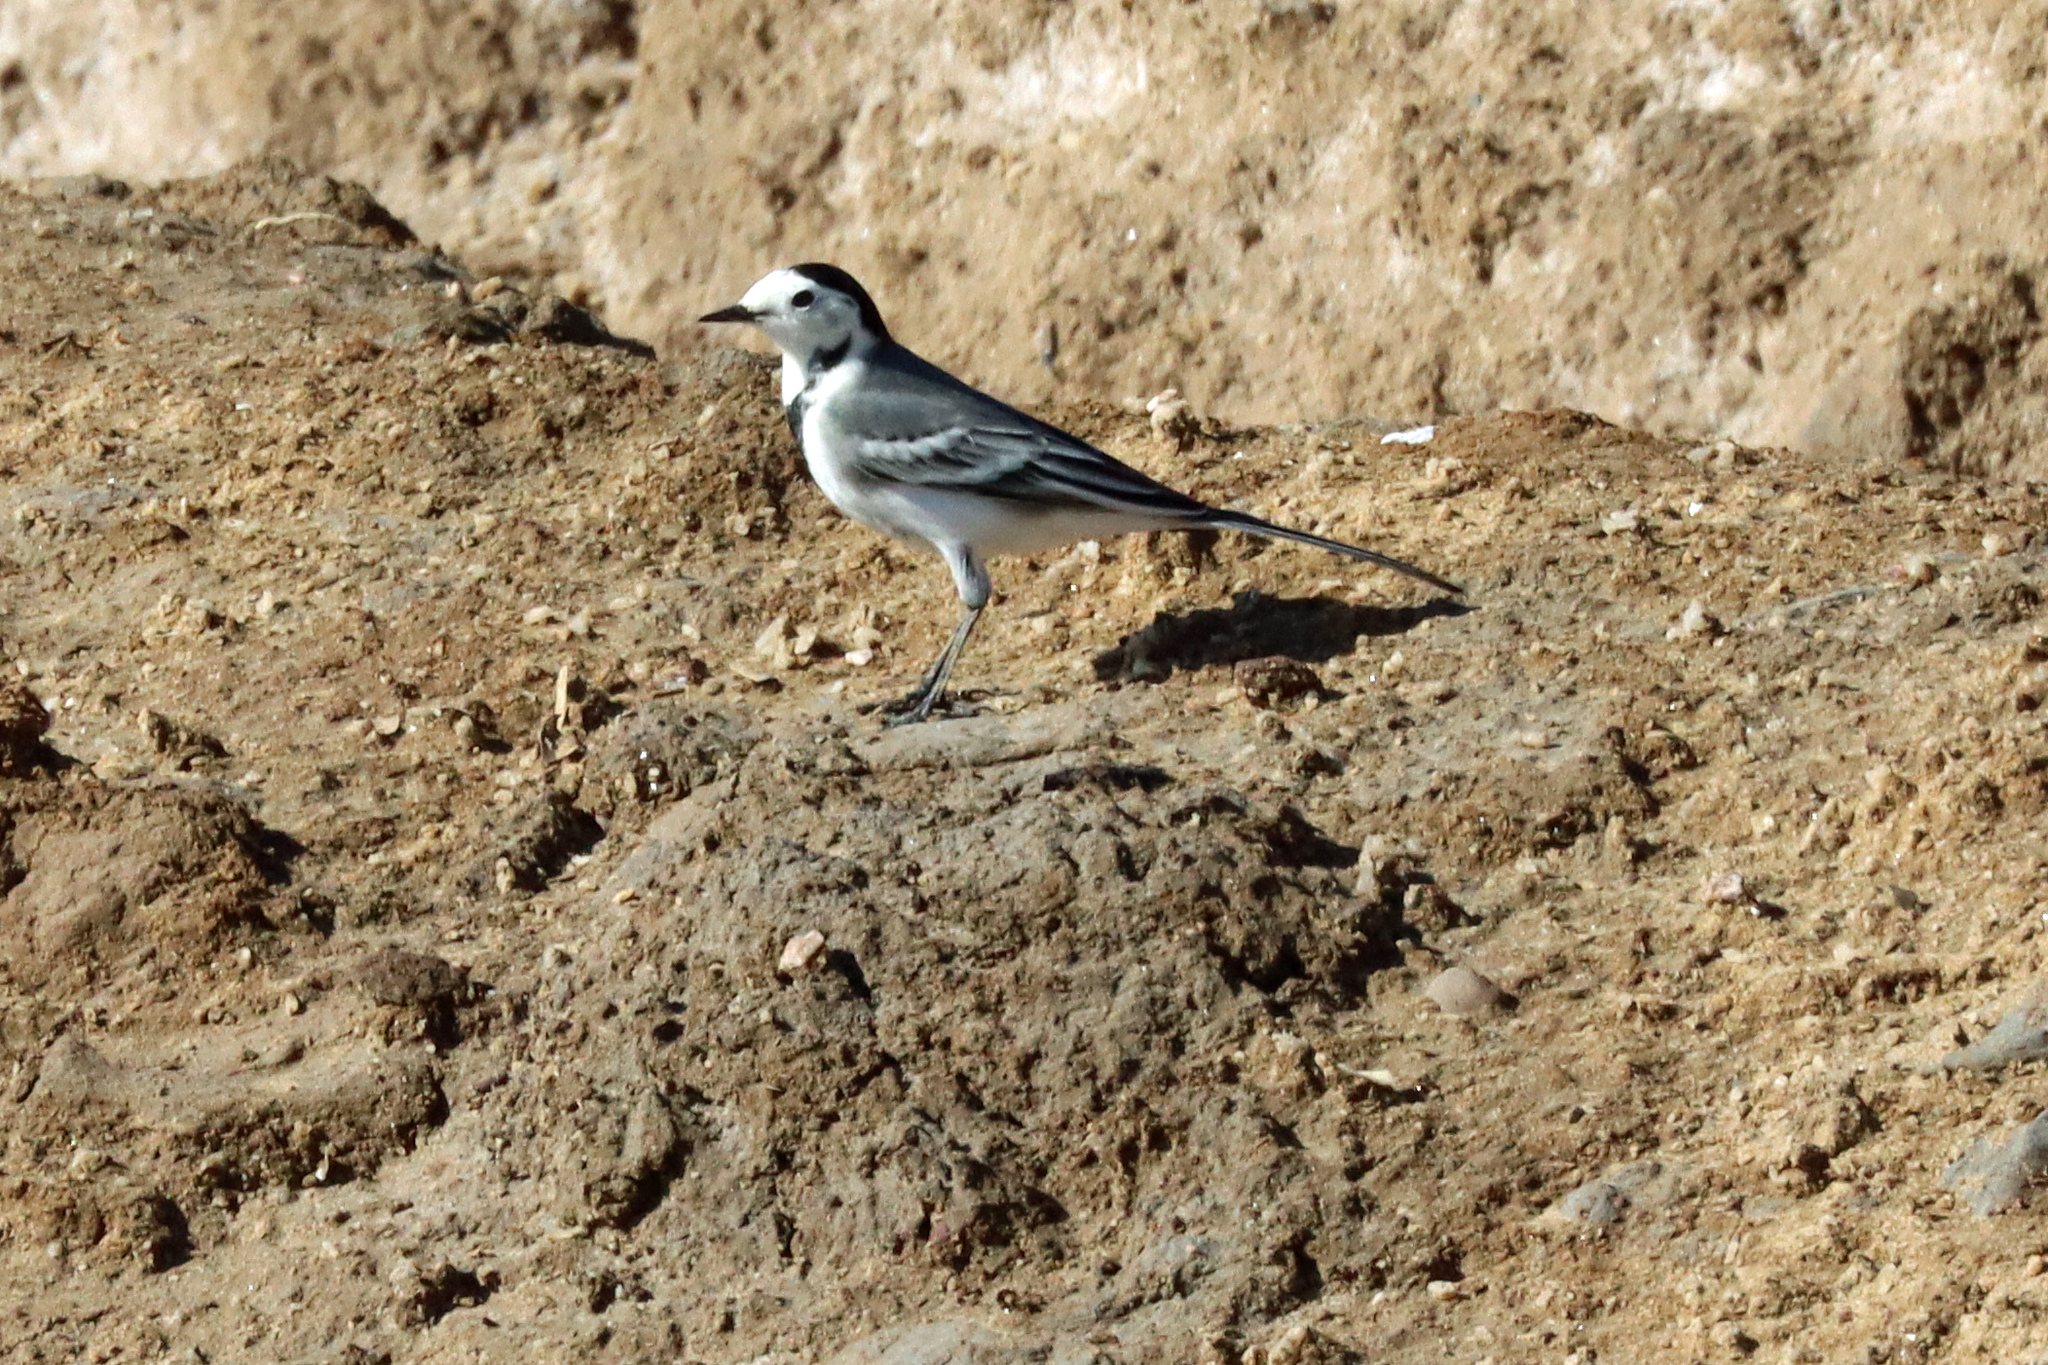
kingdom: Animalia
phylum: Chordata
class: Aves
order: Passeriformes
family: Motacillidae
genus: Motacilla
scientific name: Motacilla alba
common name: White wagtail
